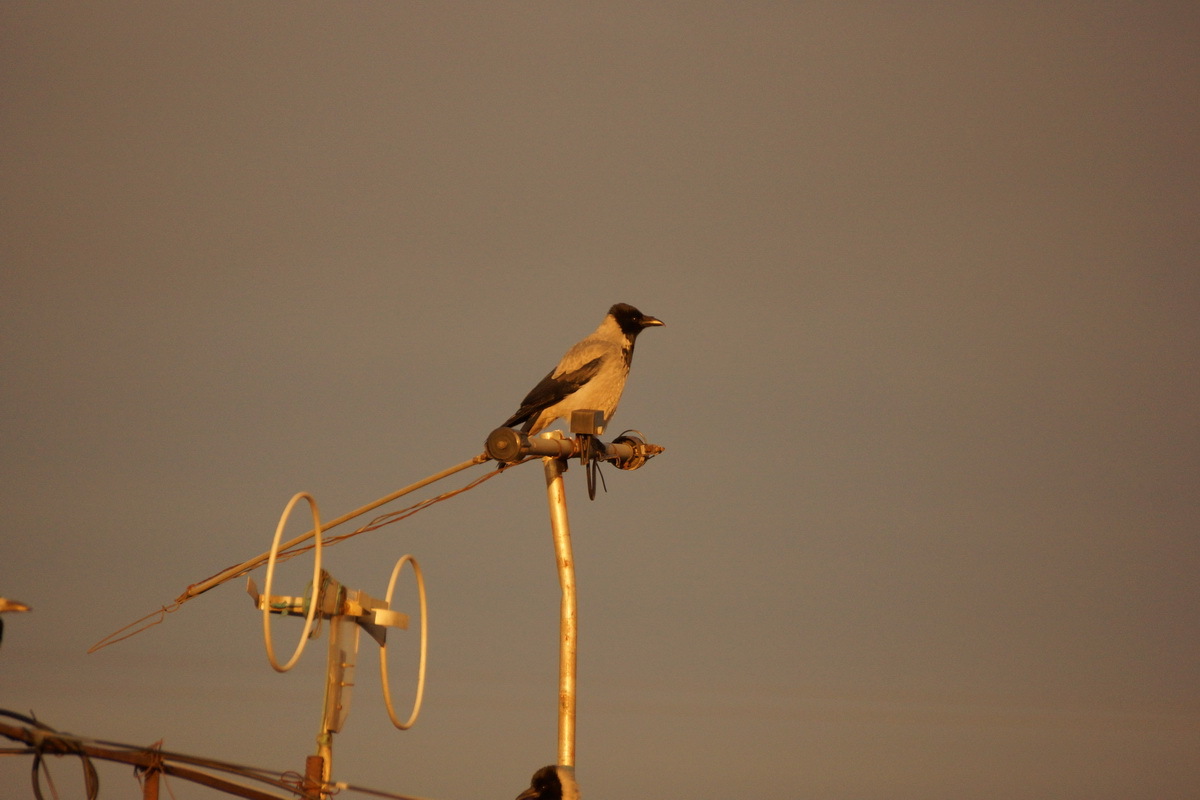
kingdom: Animalia
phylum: Chordata
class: Aves
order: Passeriformes
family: Corvidae
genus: Corvus
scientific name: Corvus cornix
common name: Hooded crow
